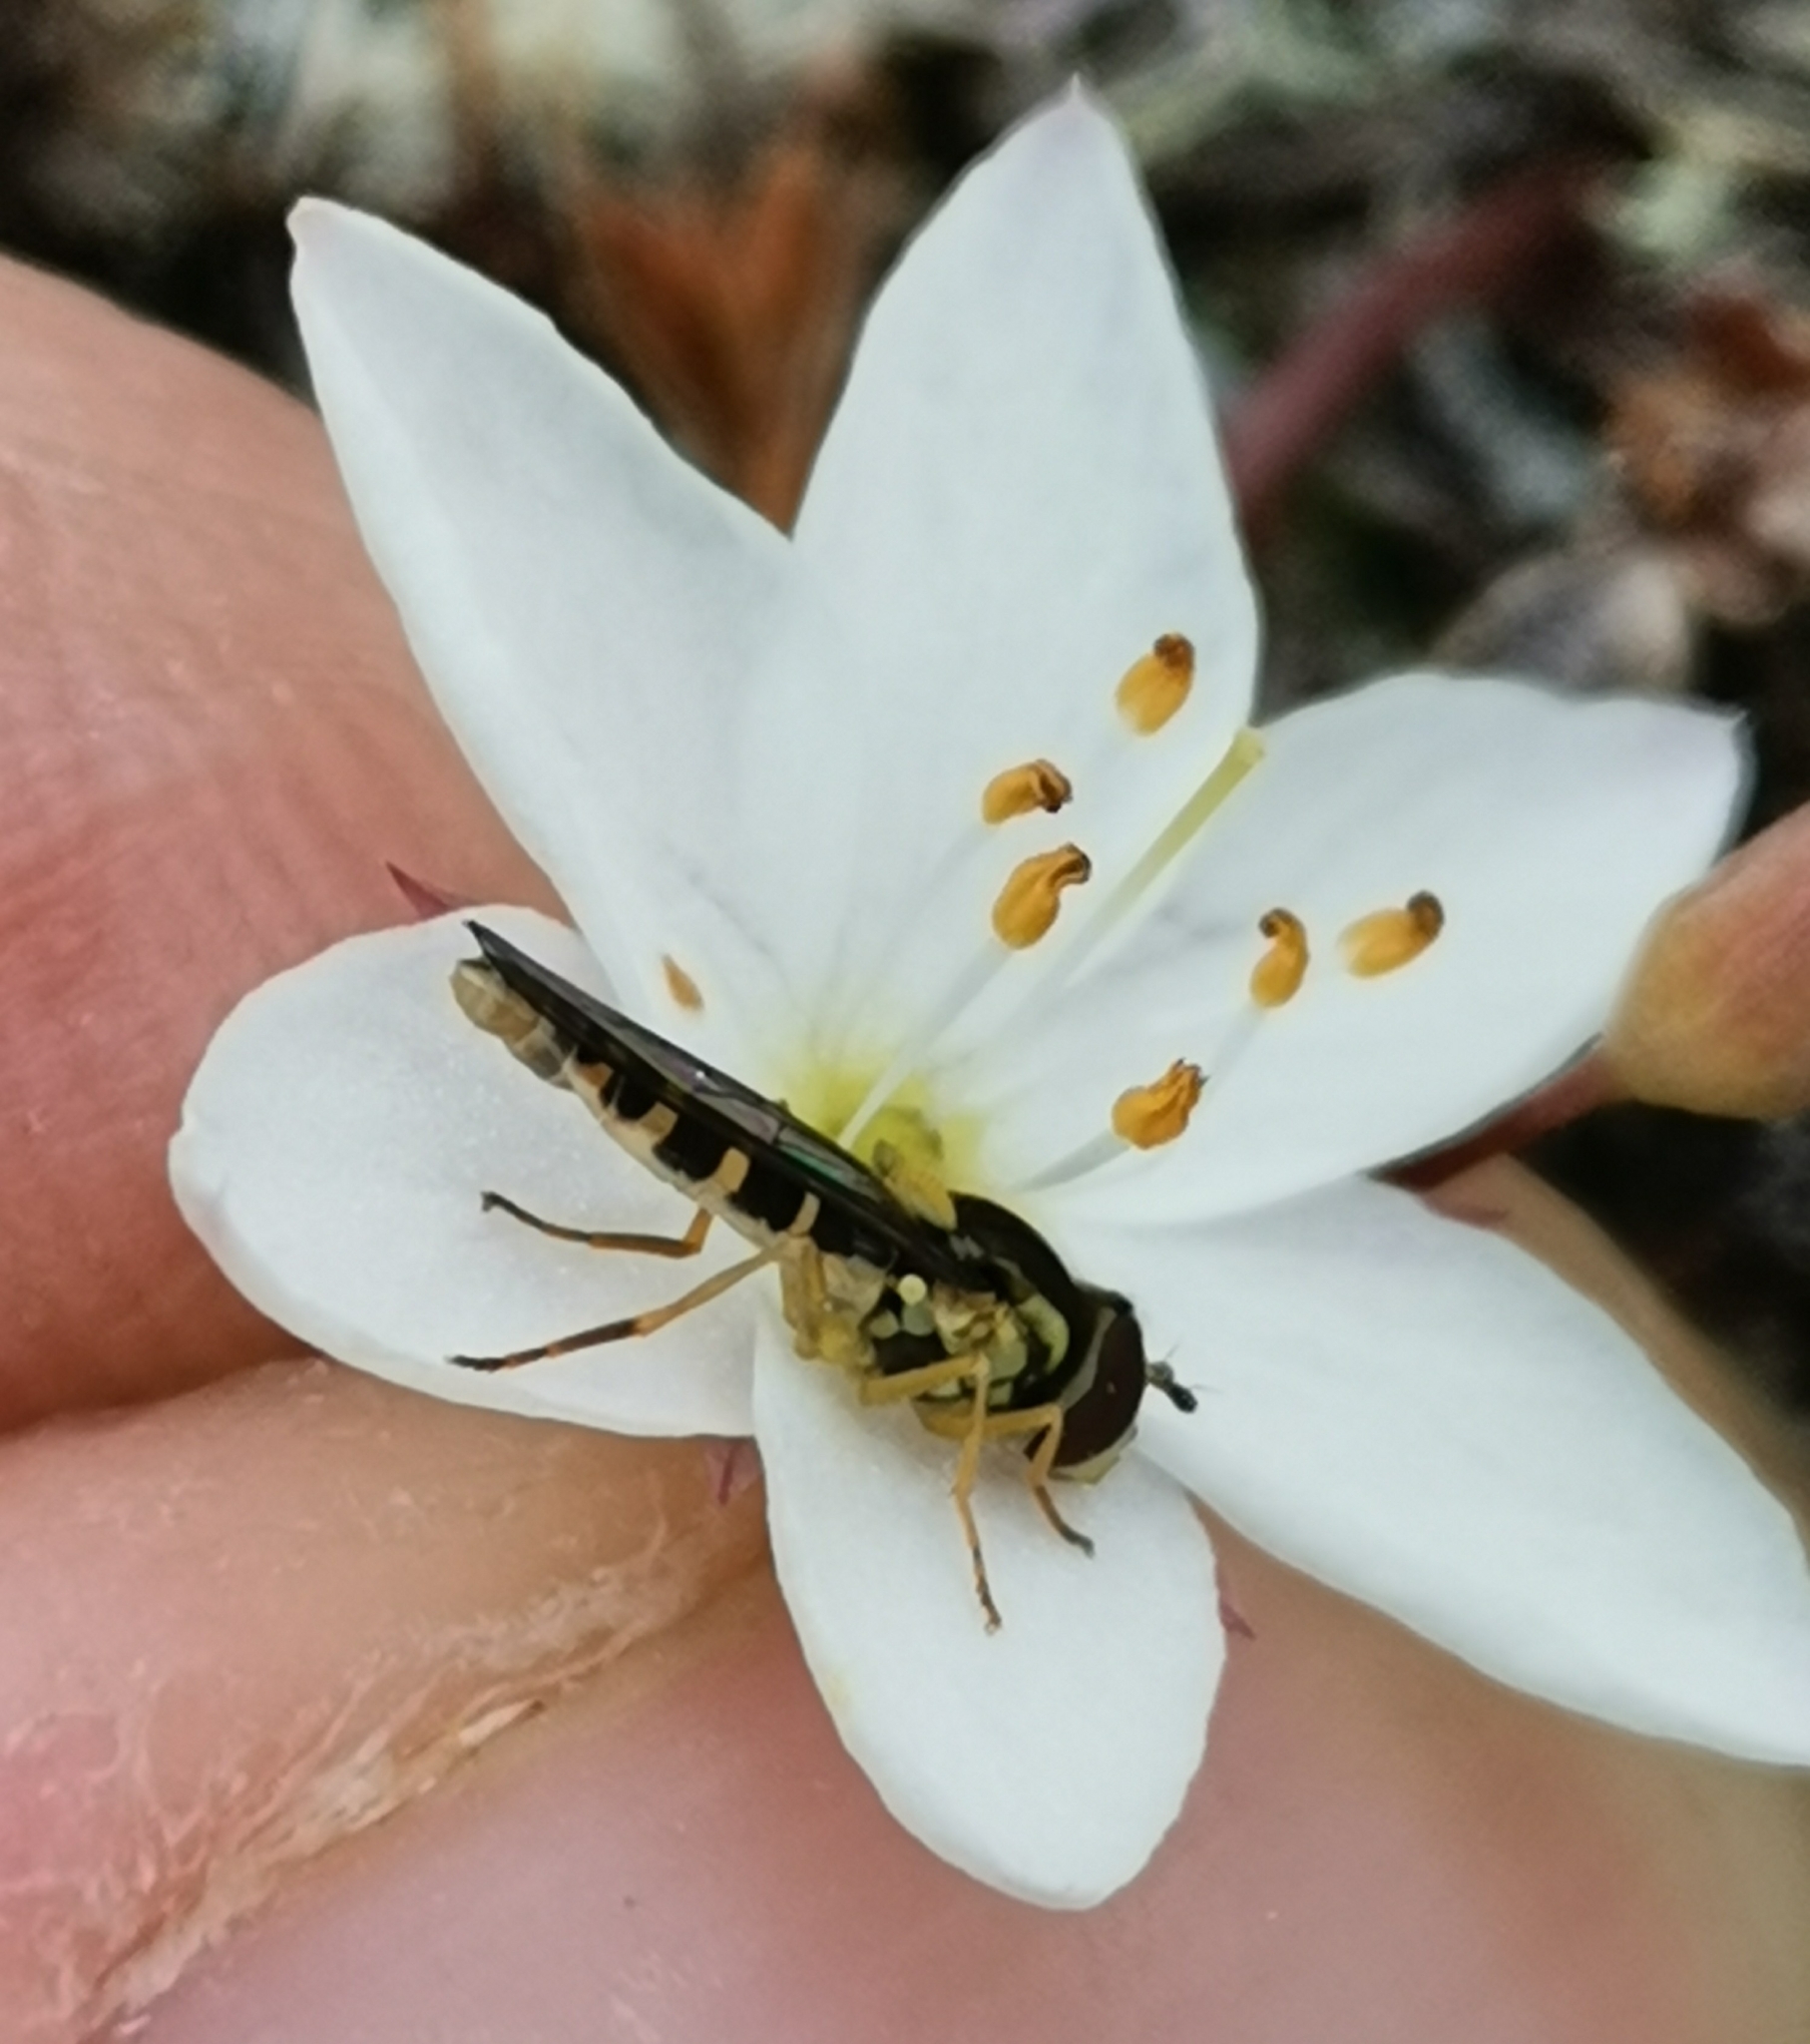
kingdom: Animalia
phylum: Arthropoda
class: Insecta
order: Diptera
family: Syrphidae
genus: Sphaerophoria
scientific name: Sphaerophoria
